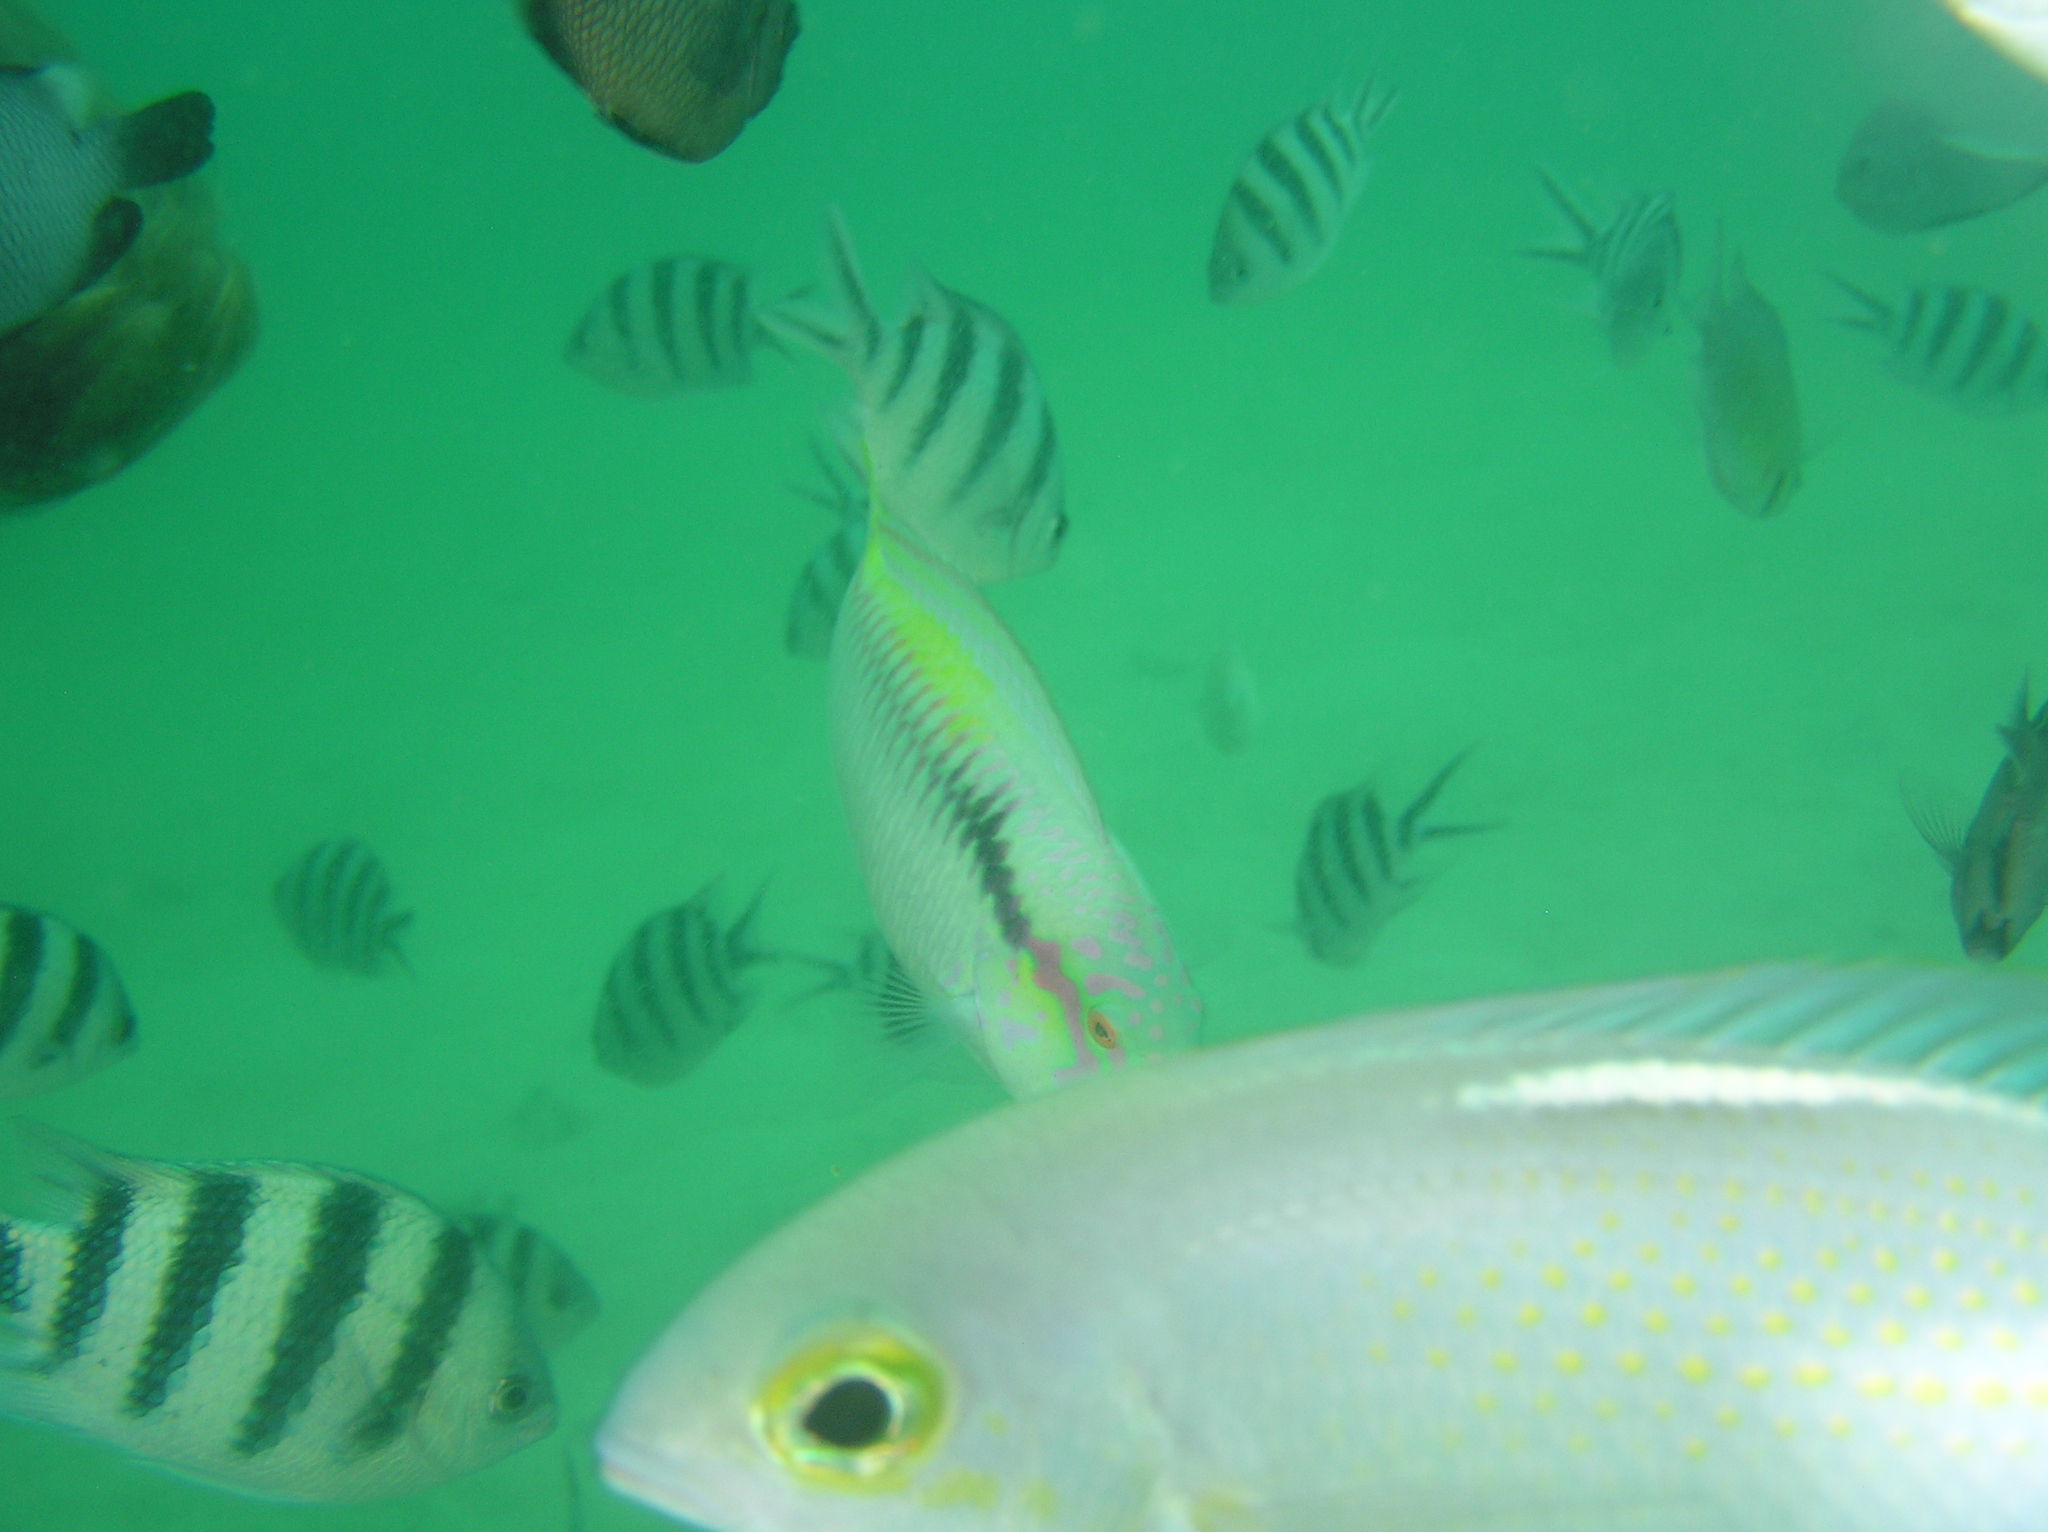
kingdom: Animalia
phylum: Chordata
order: Perciformes
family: Labridae
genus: Halichoeres
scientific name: Halichoeres scapularis
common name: Brownbanded wrasse
